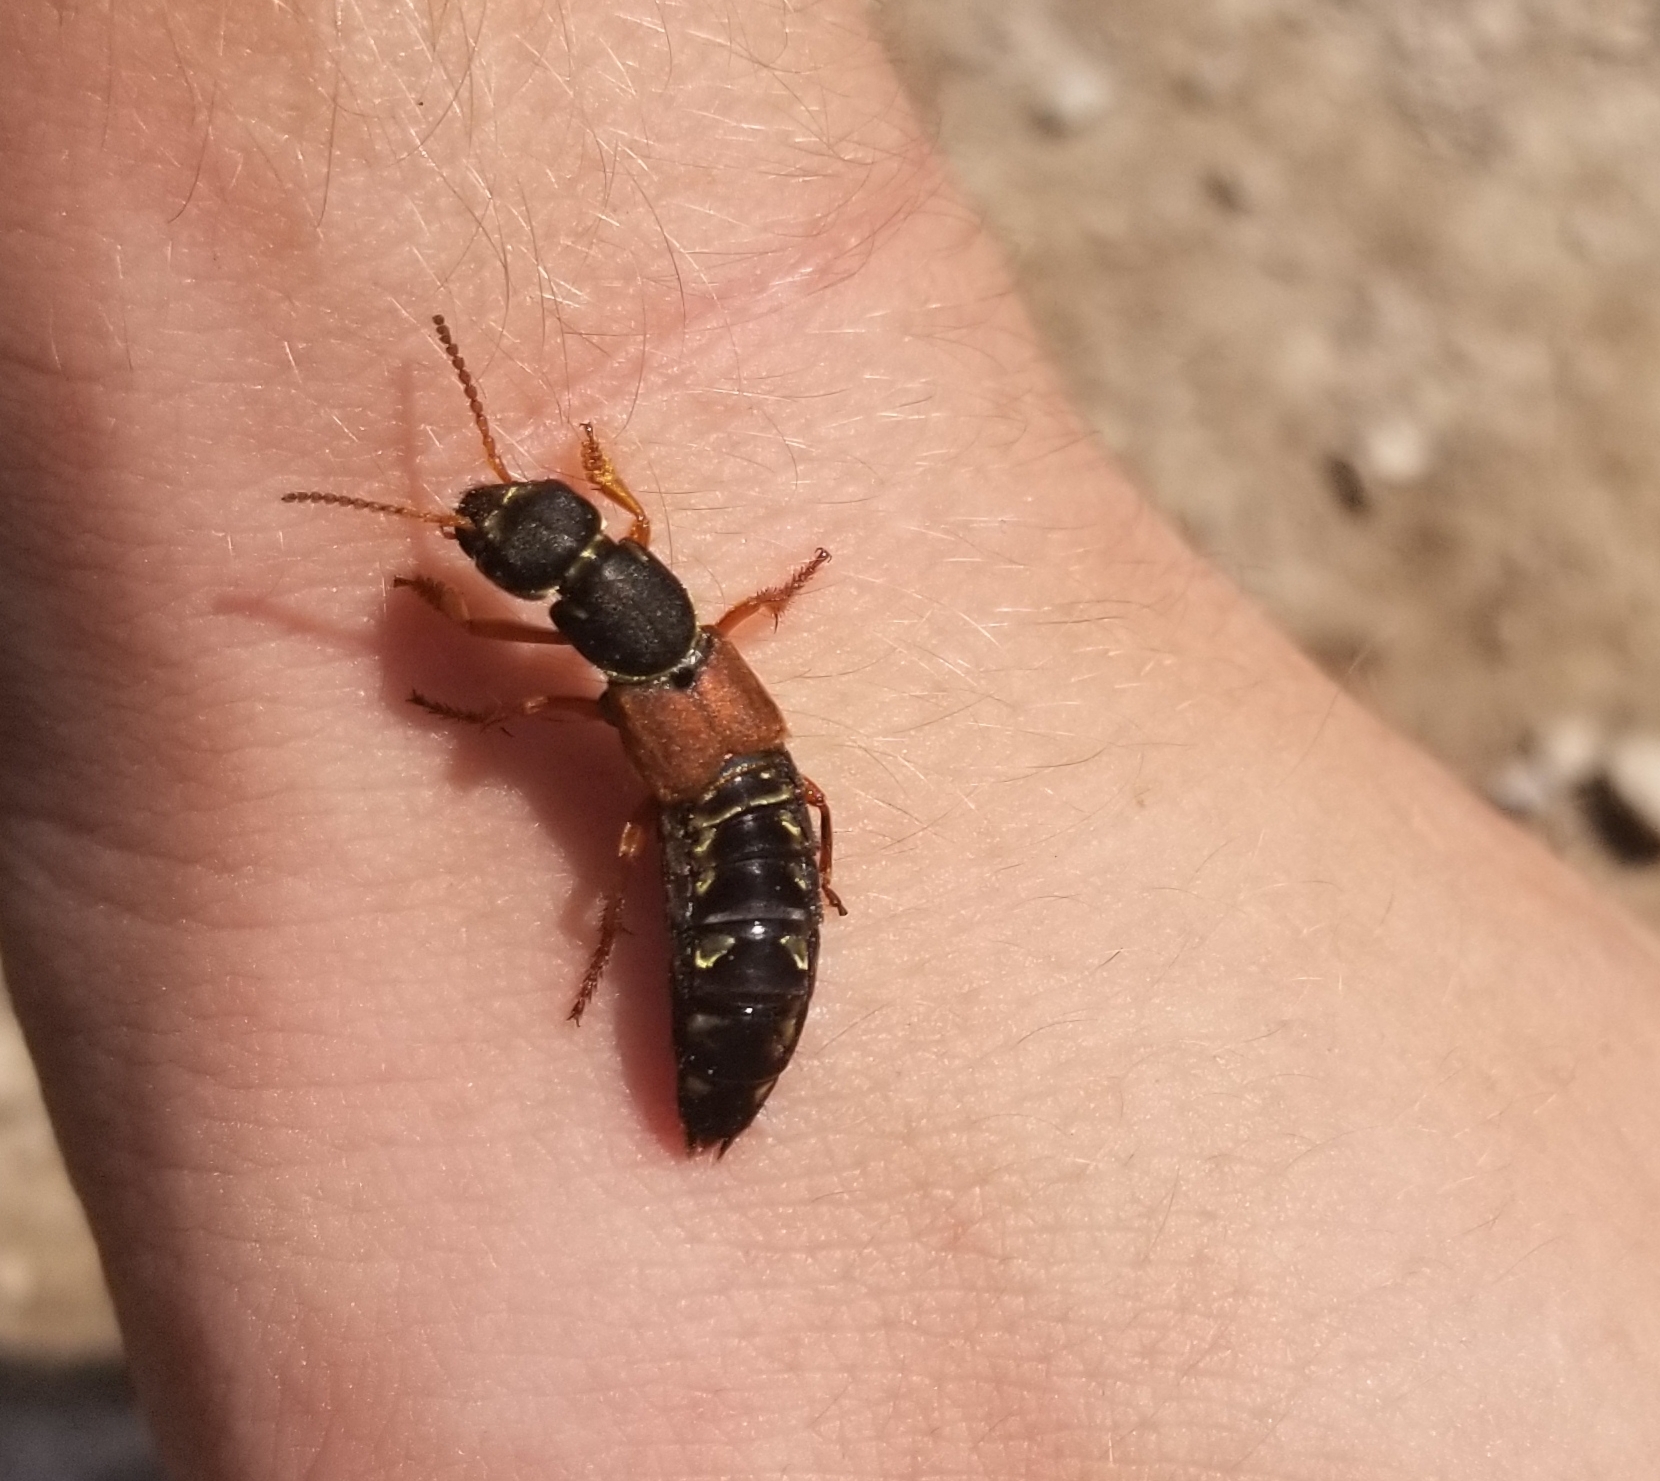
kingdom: Animalia
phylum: Arthropoda
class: Insecta
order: Coleoptera
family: Staphylinidae
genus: Staphylinus
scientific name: Staphylinus caesareus
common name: Staph beetle
